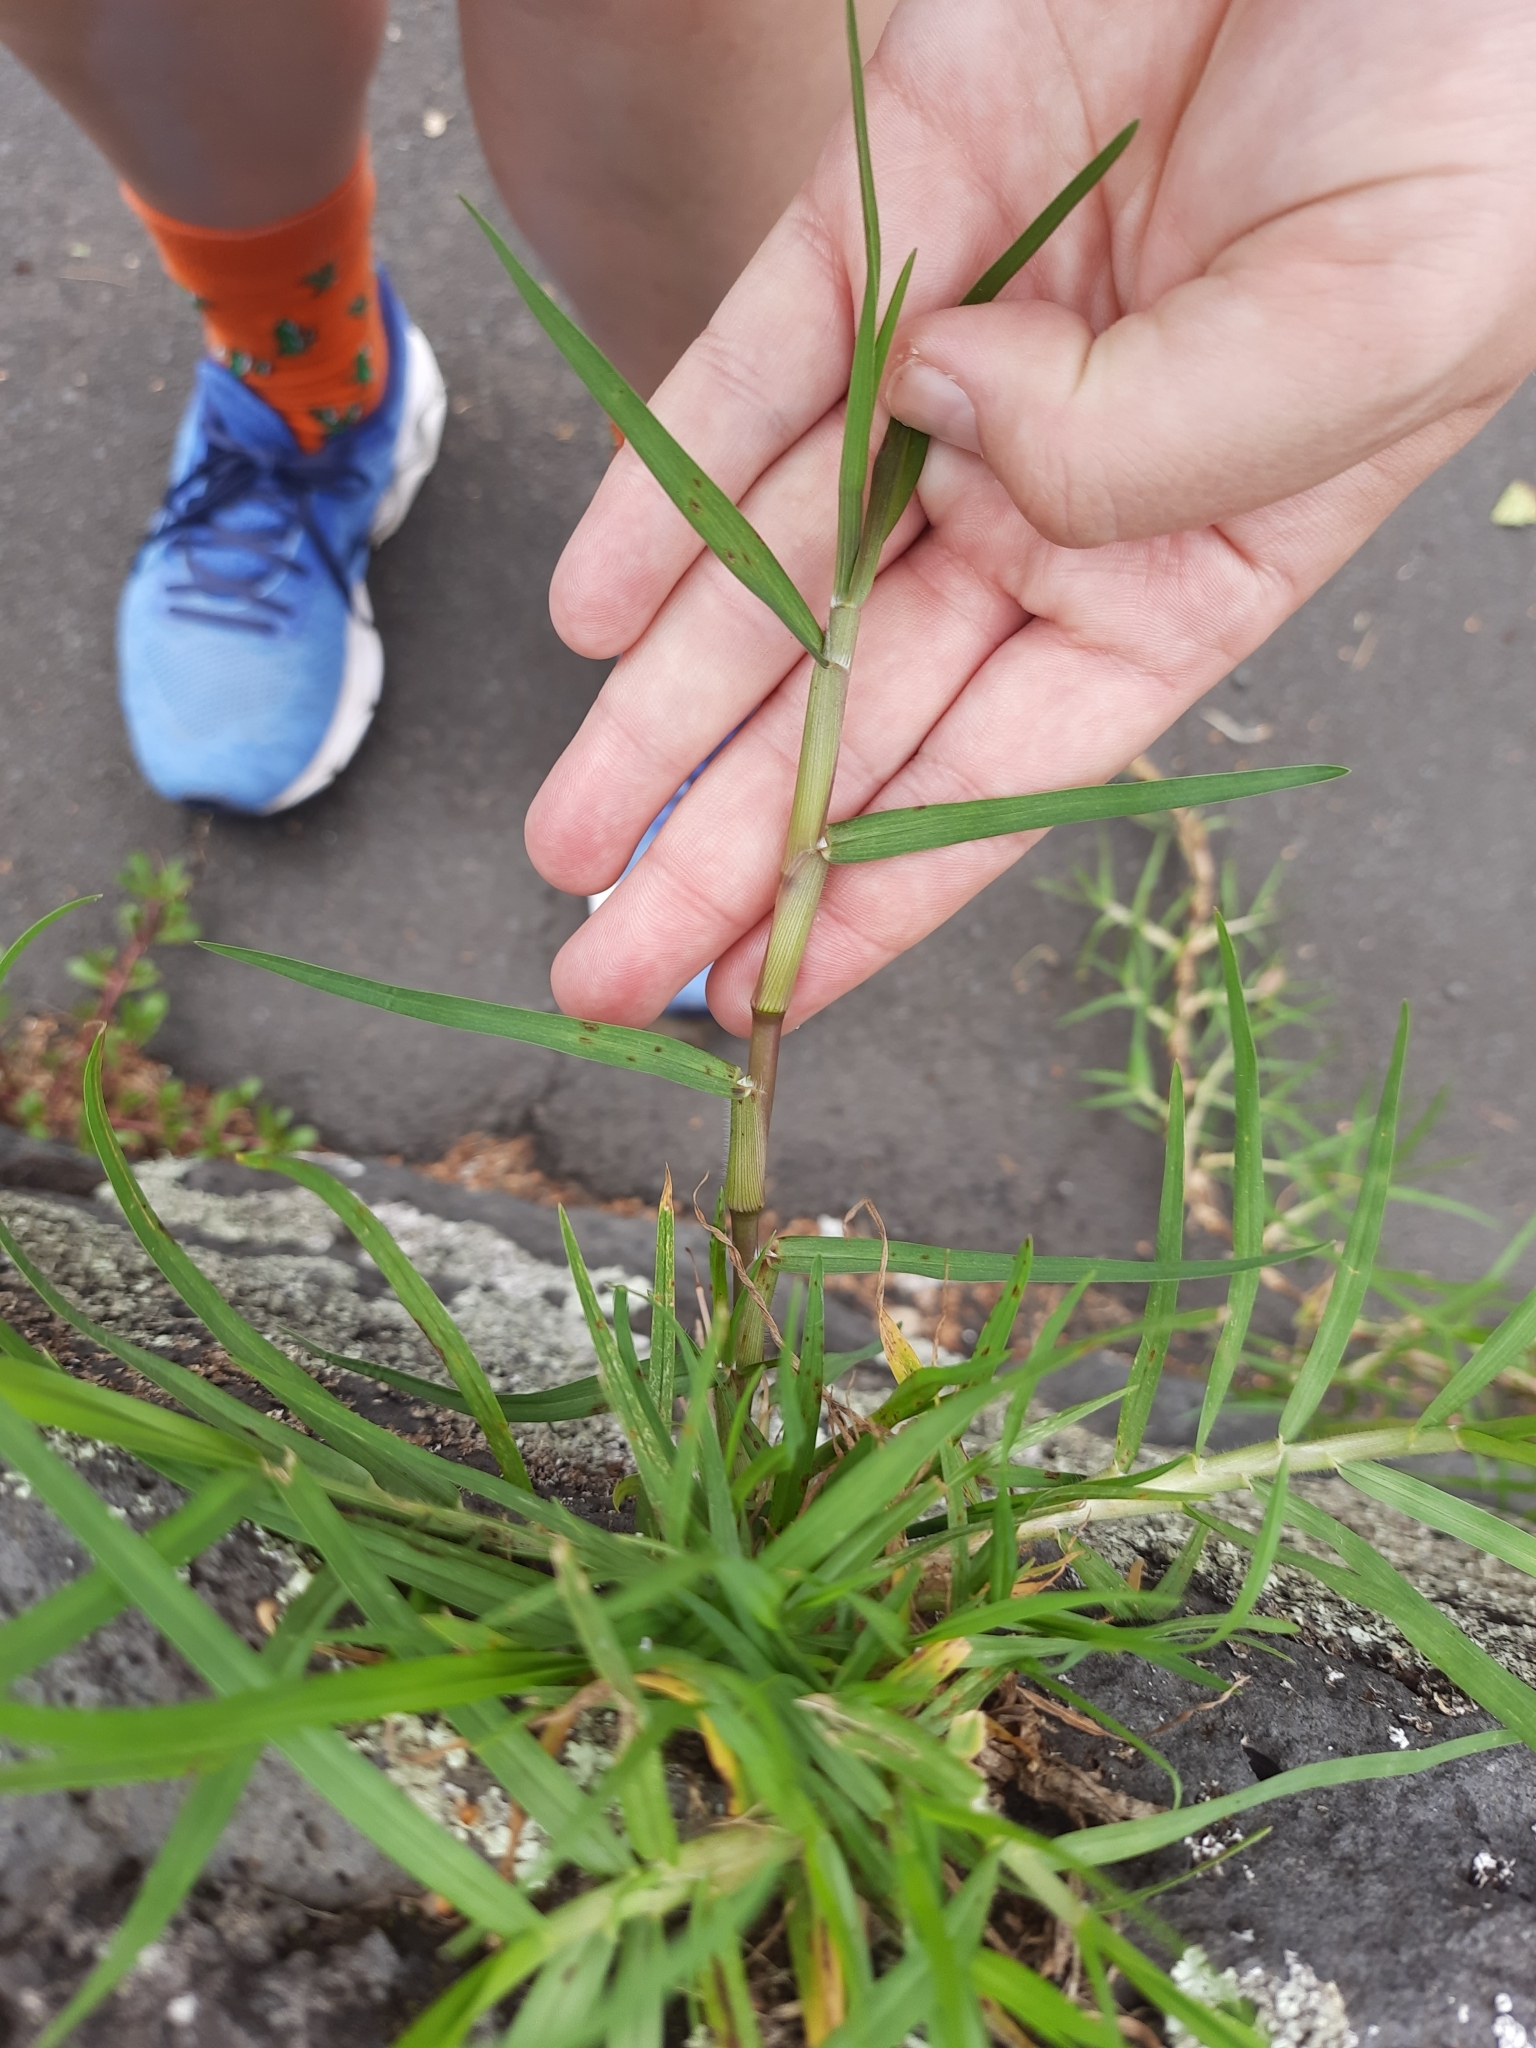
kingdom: Plantae
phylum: Tracheophyta
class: Liliopsida
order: Poales
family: Poaceae
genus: Cenchrus
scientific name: Cenchrus clandestinus
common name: Kikuyugrass
